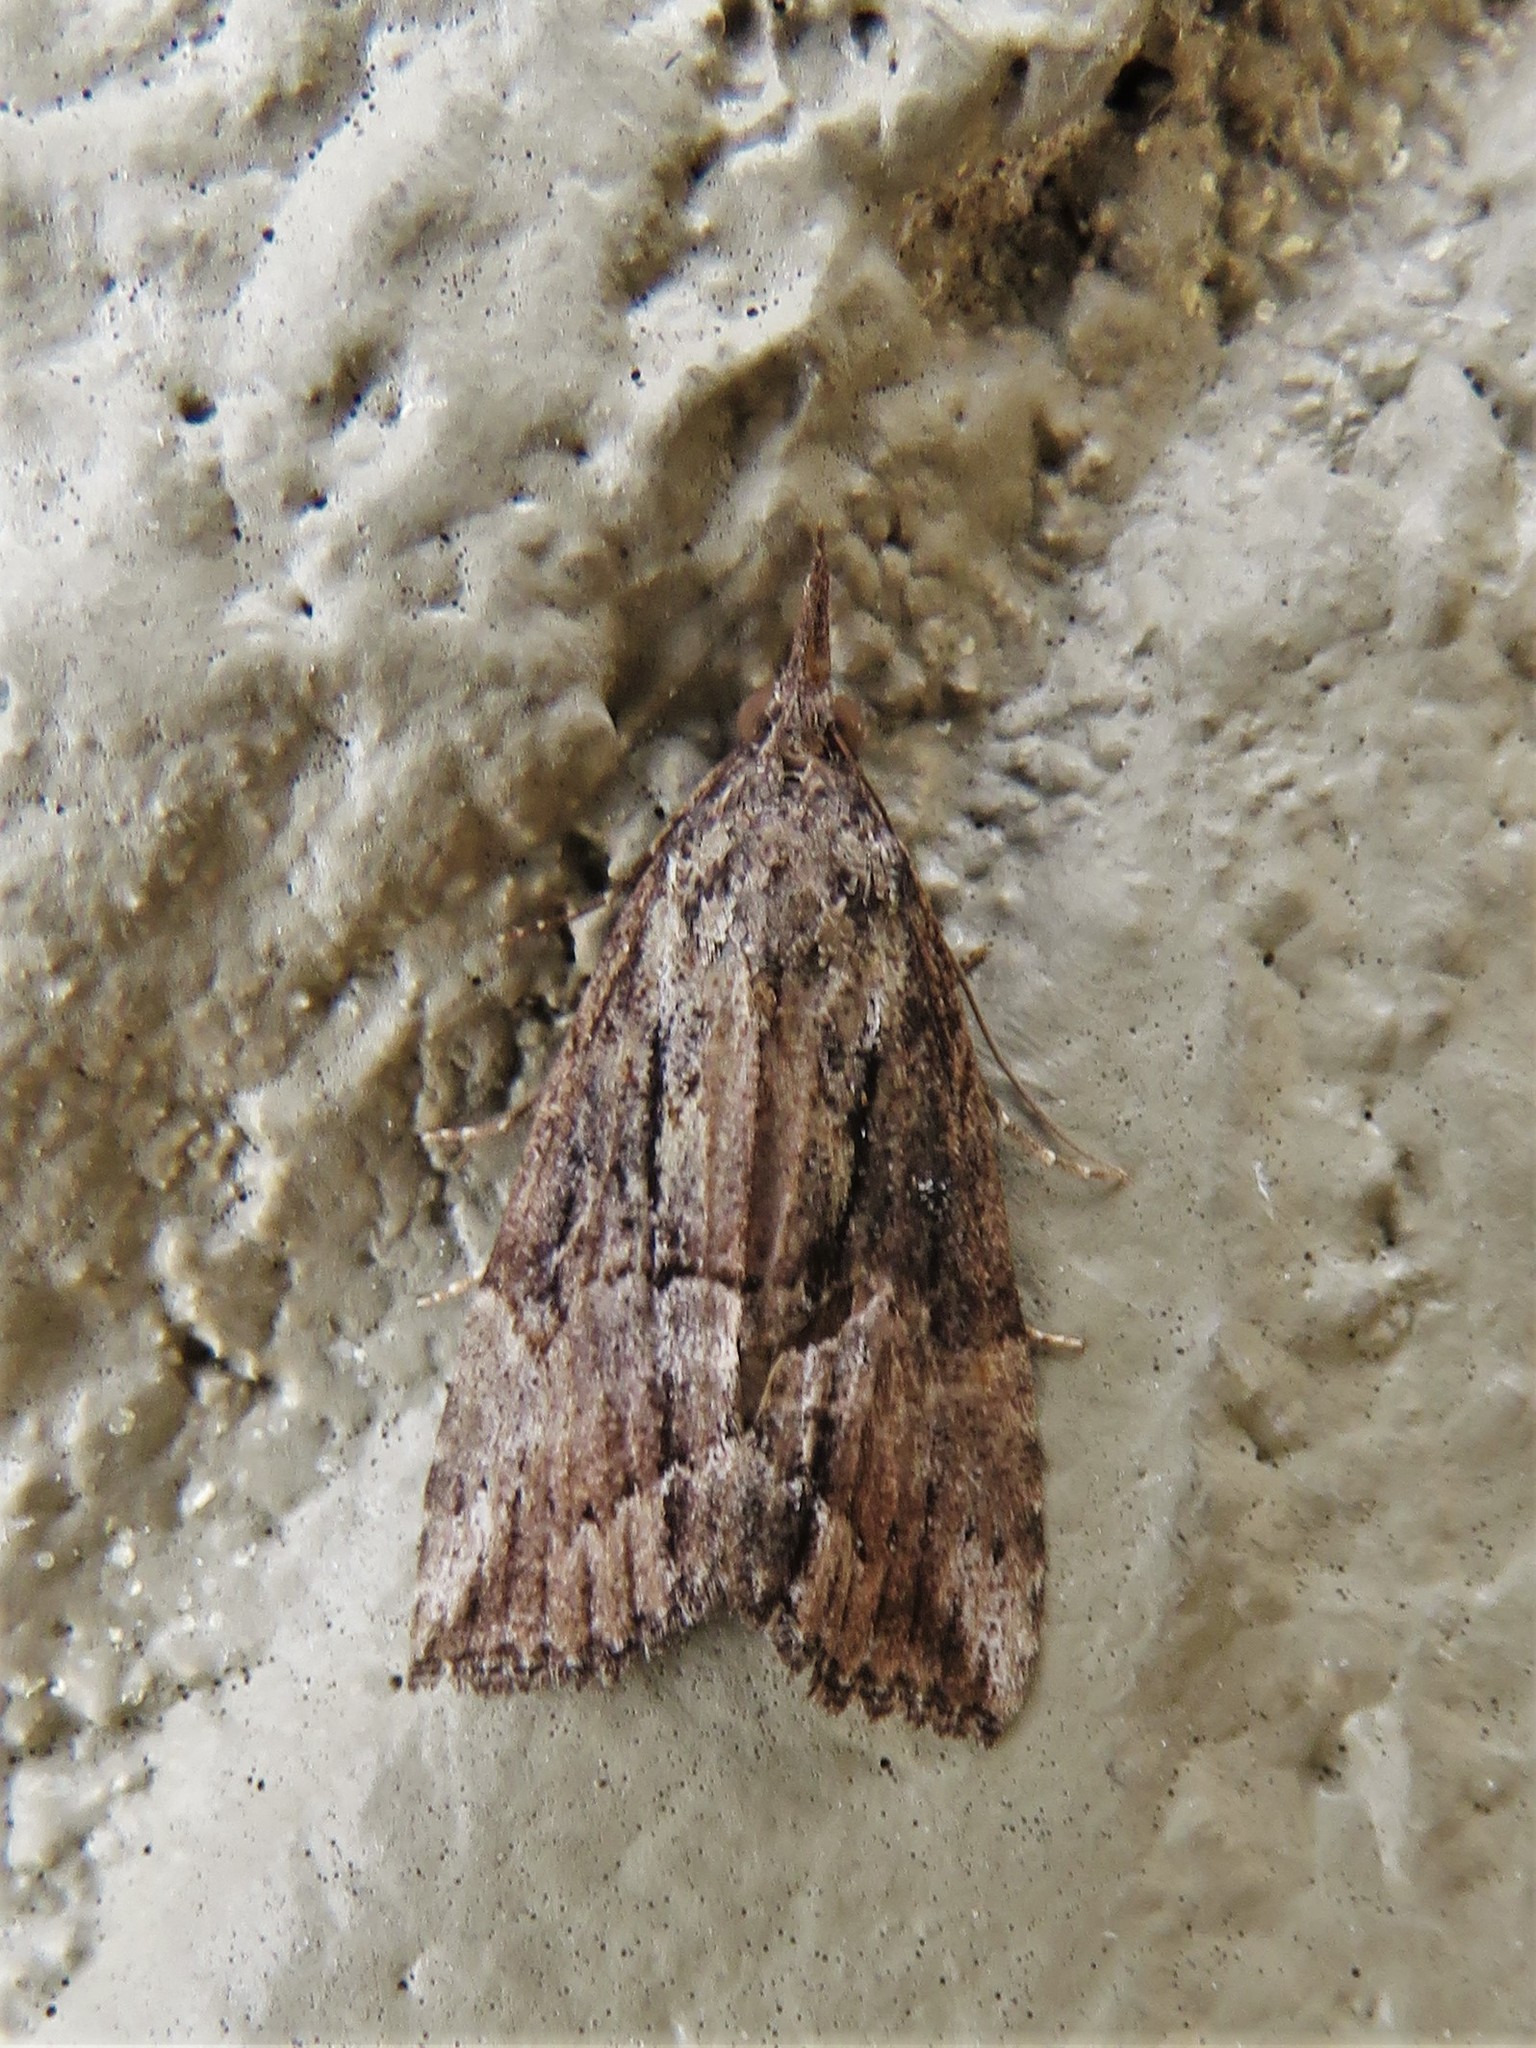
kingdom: Animalia
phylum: Arthropoda
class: Insecta
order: Lepidoptera
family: Erebidae
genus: Hypena
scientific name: Hypena scabra
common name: Green cloverworm
